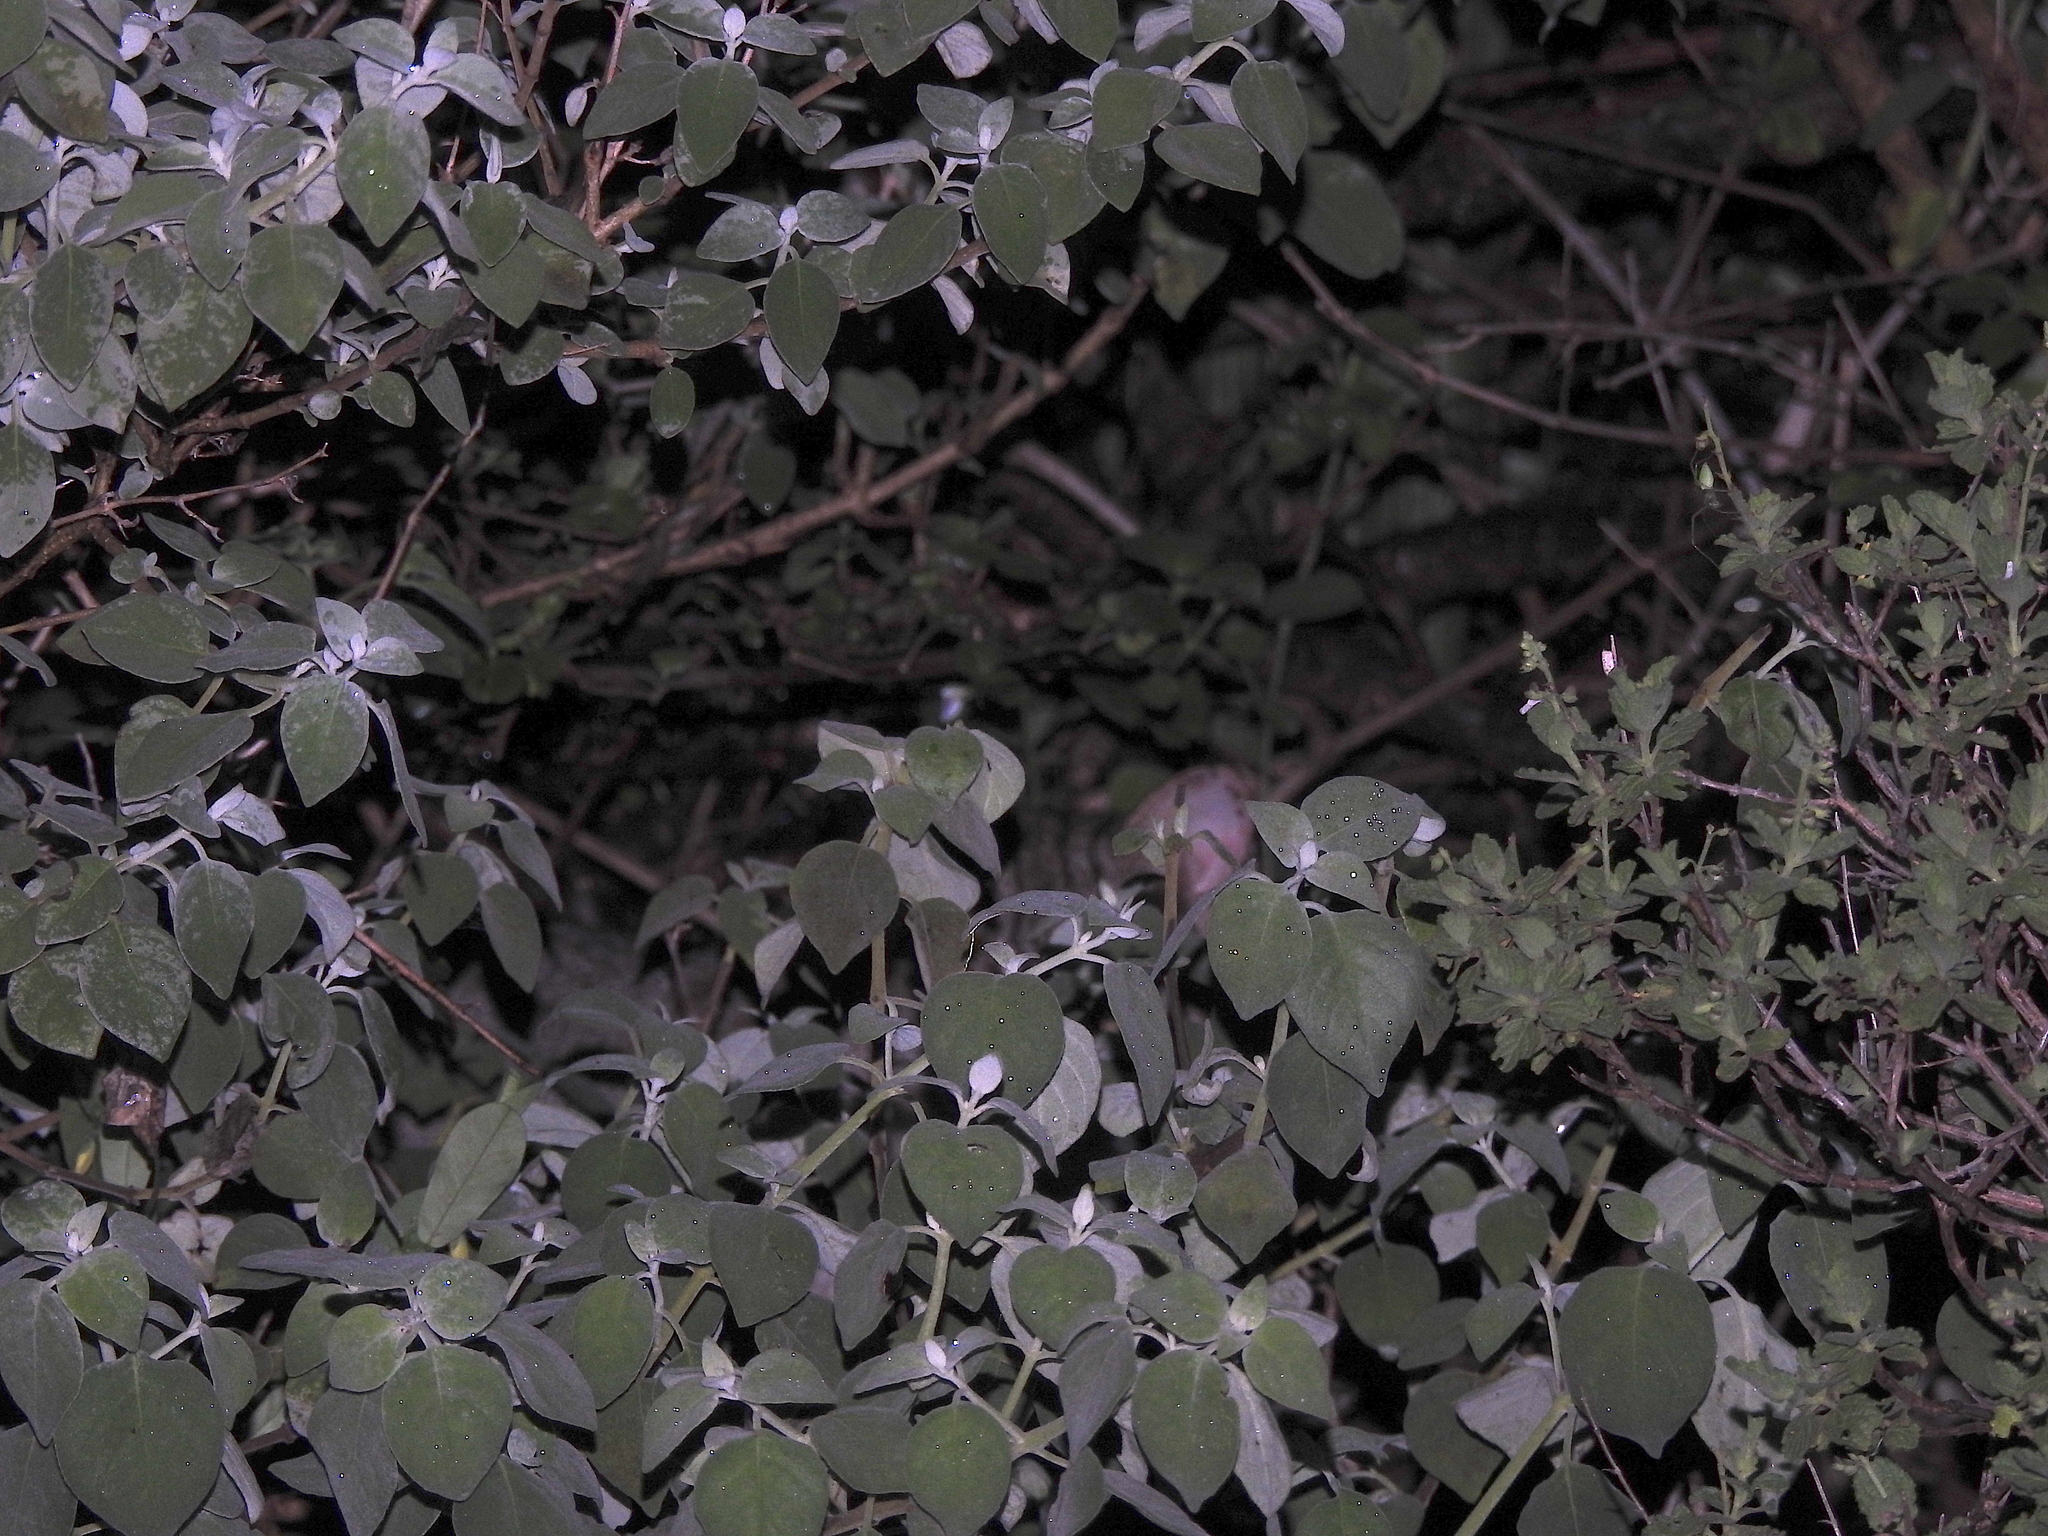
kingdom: Animalia
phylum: Chordata
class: Mammalia
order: Carnivora
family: Felidae
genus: Prionailurus
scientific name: Prionailurus rubiginosus
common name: Rusty-spotted cat
